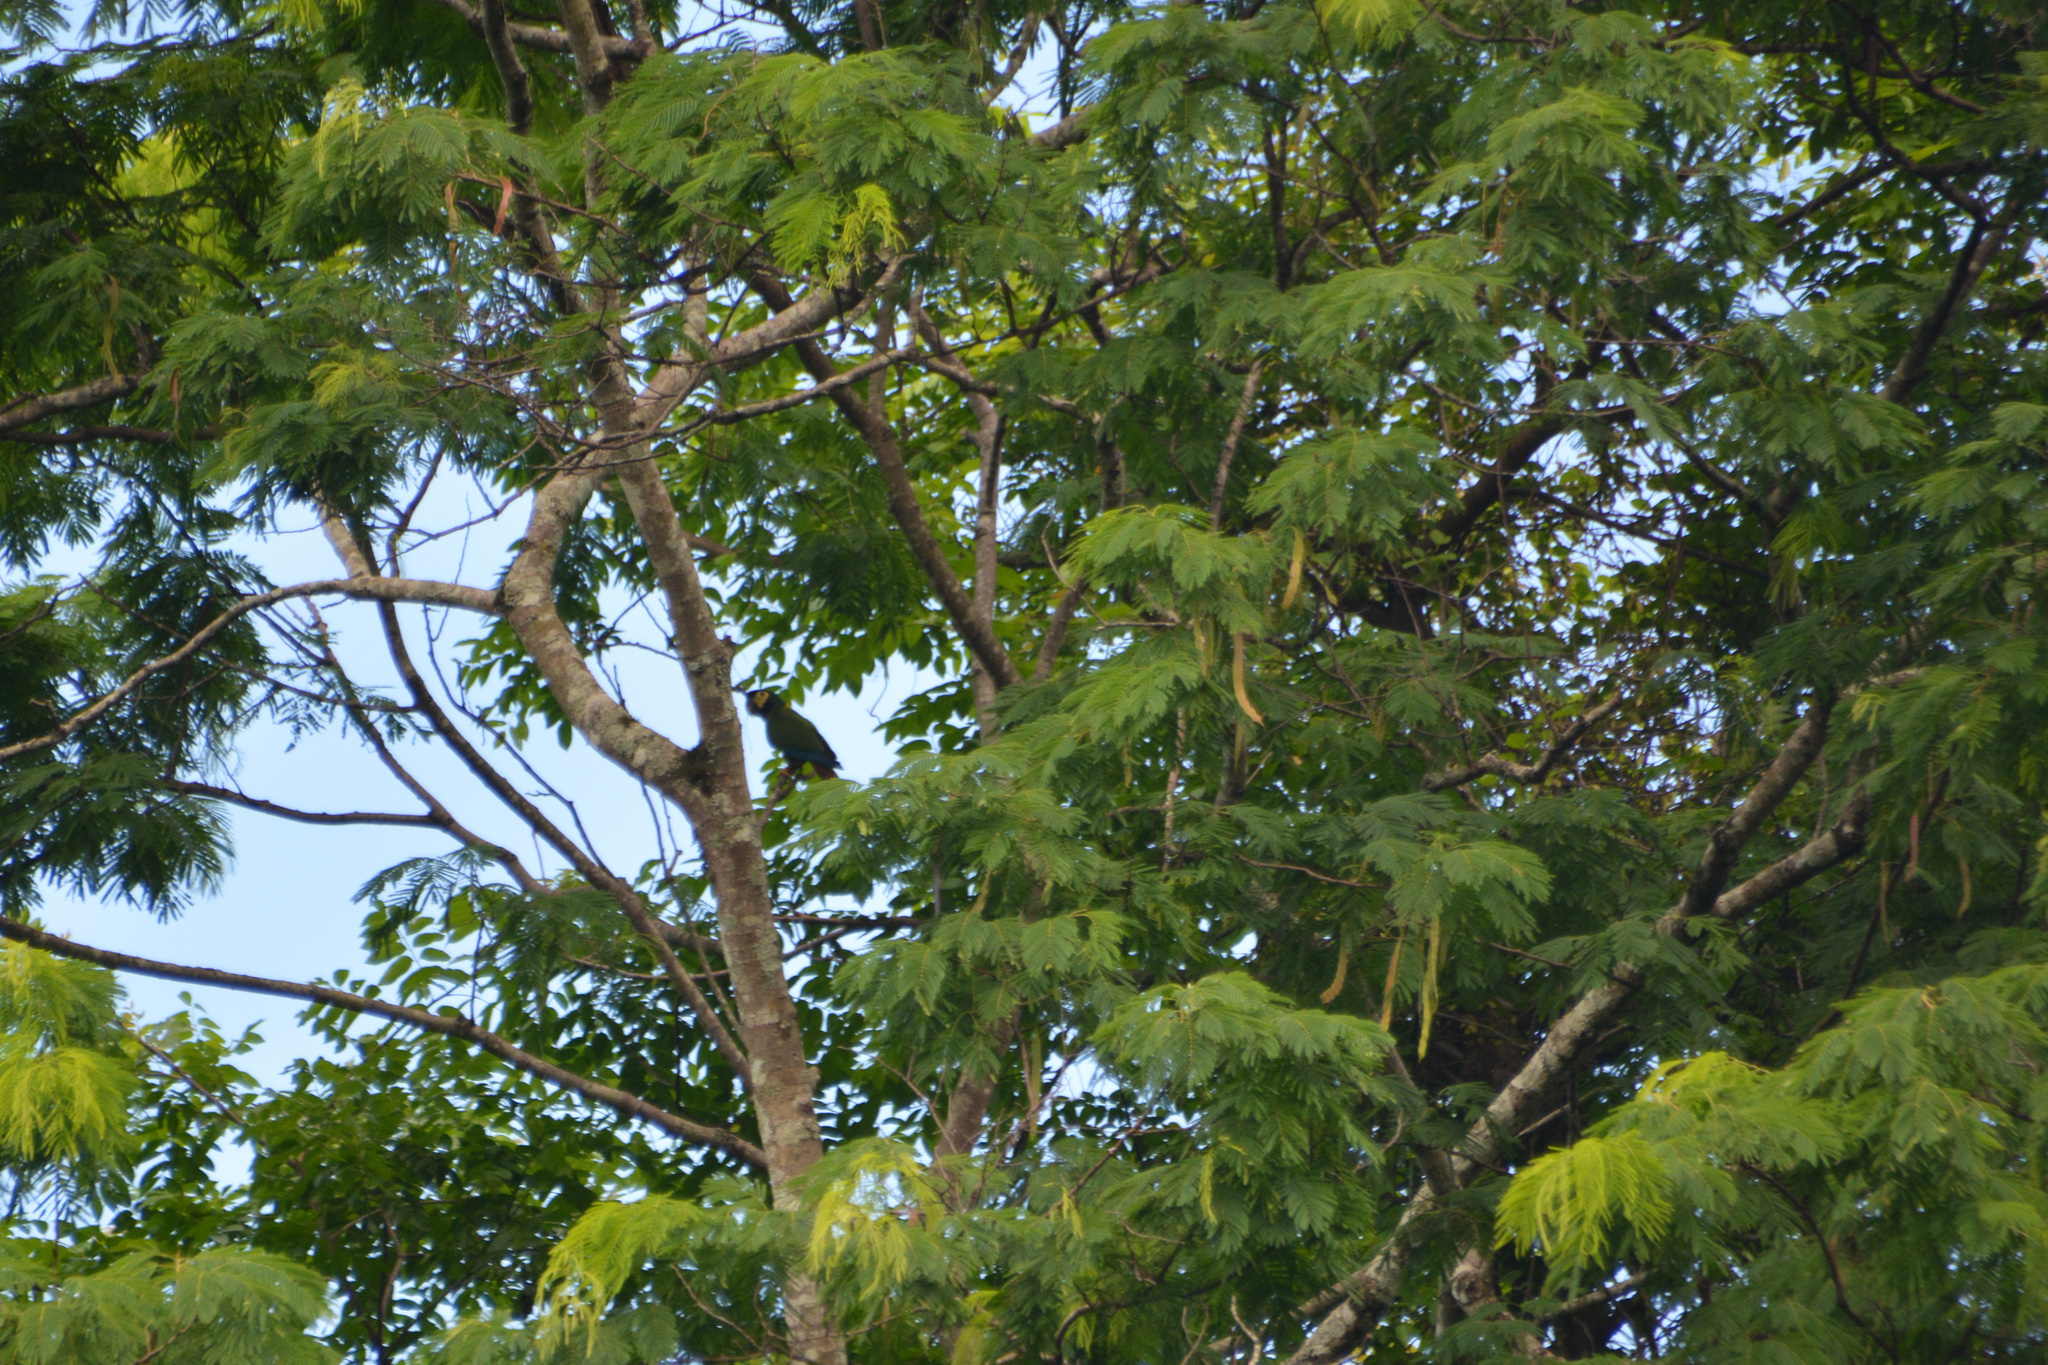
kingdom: Animalia
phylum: Chordata
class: Aves
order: Psittaciformes
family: Psittacidae
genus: Primolius
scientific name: Primolius auricollis
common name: Golden-collared macaw
